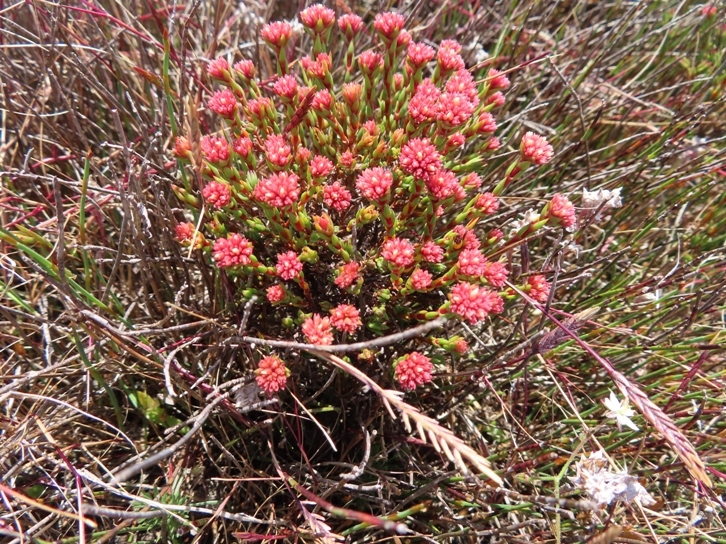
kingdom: Plantae
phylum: Tracheophyta
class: Magnoliopsida
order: Saxifragales
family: Crassulaceae
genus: Crassula
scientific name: Crassula subulata
